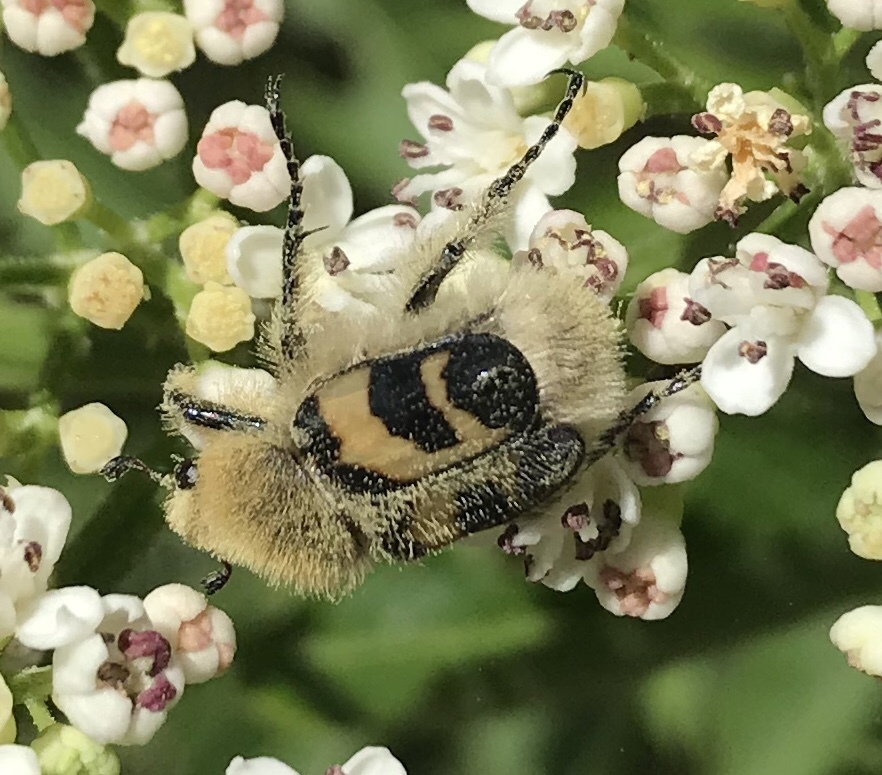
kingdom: Animalia
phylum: Arthropoda
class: Insecta
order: Coleoptera
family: Scarabaeidae
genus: Trichius
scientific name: Trichius fasciatus
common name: Bee beetle
